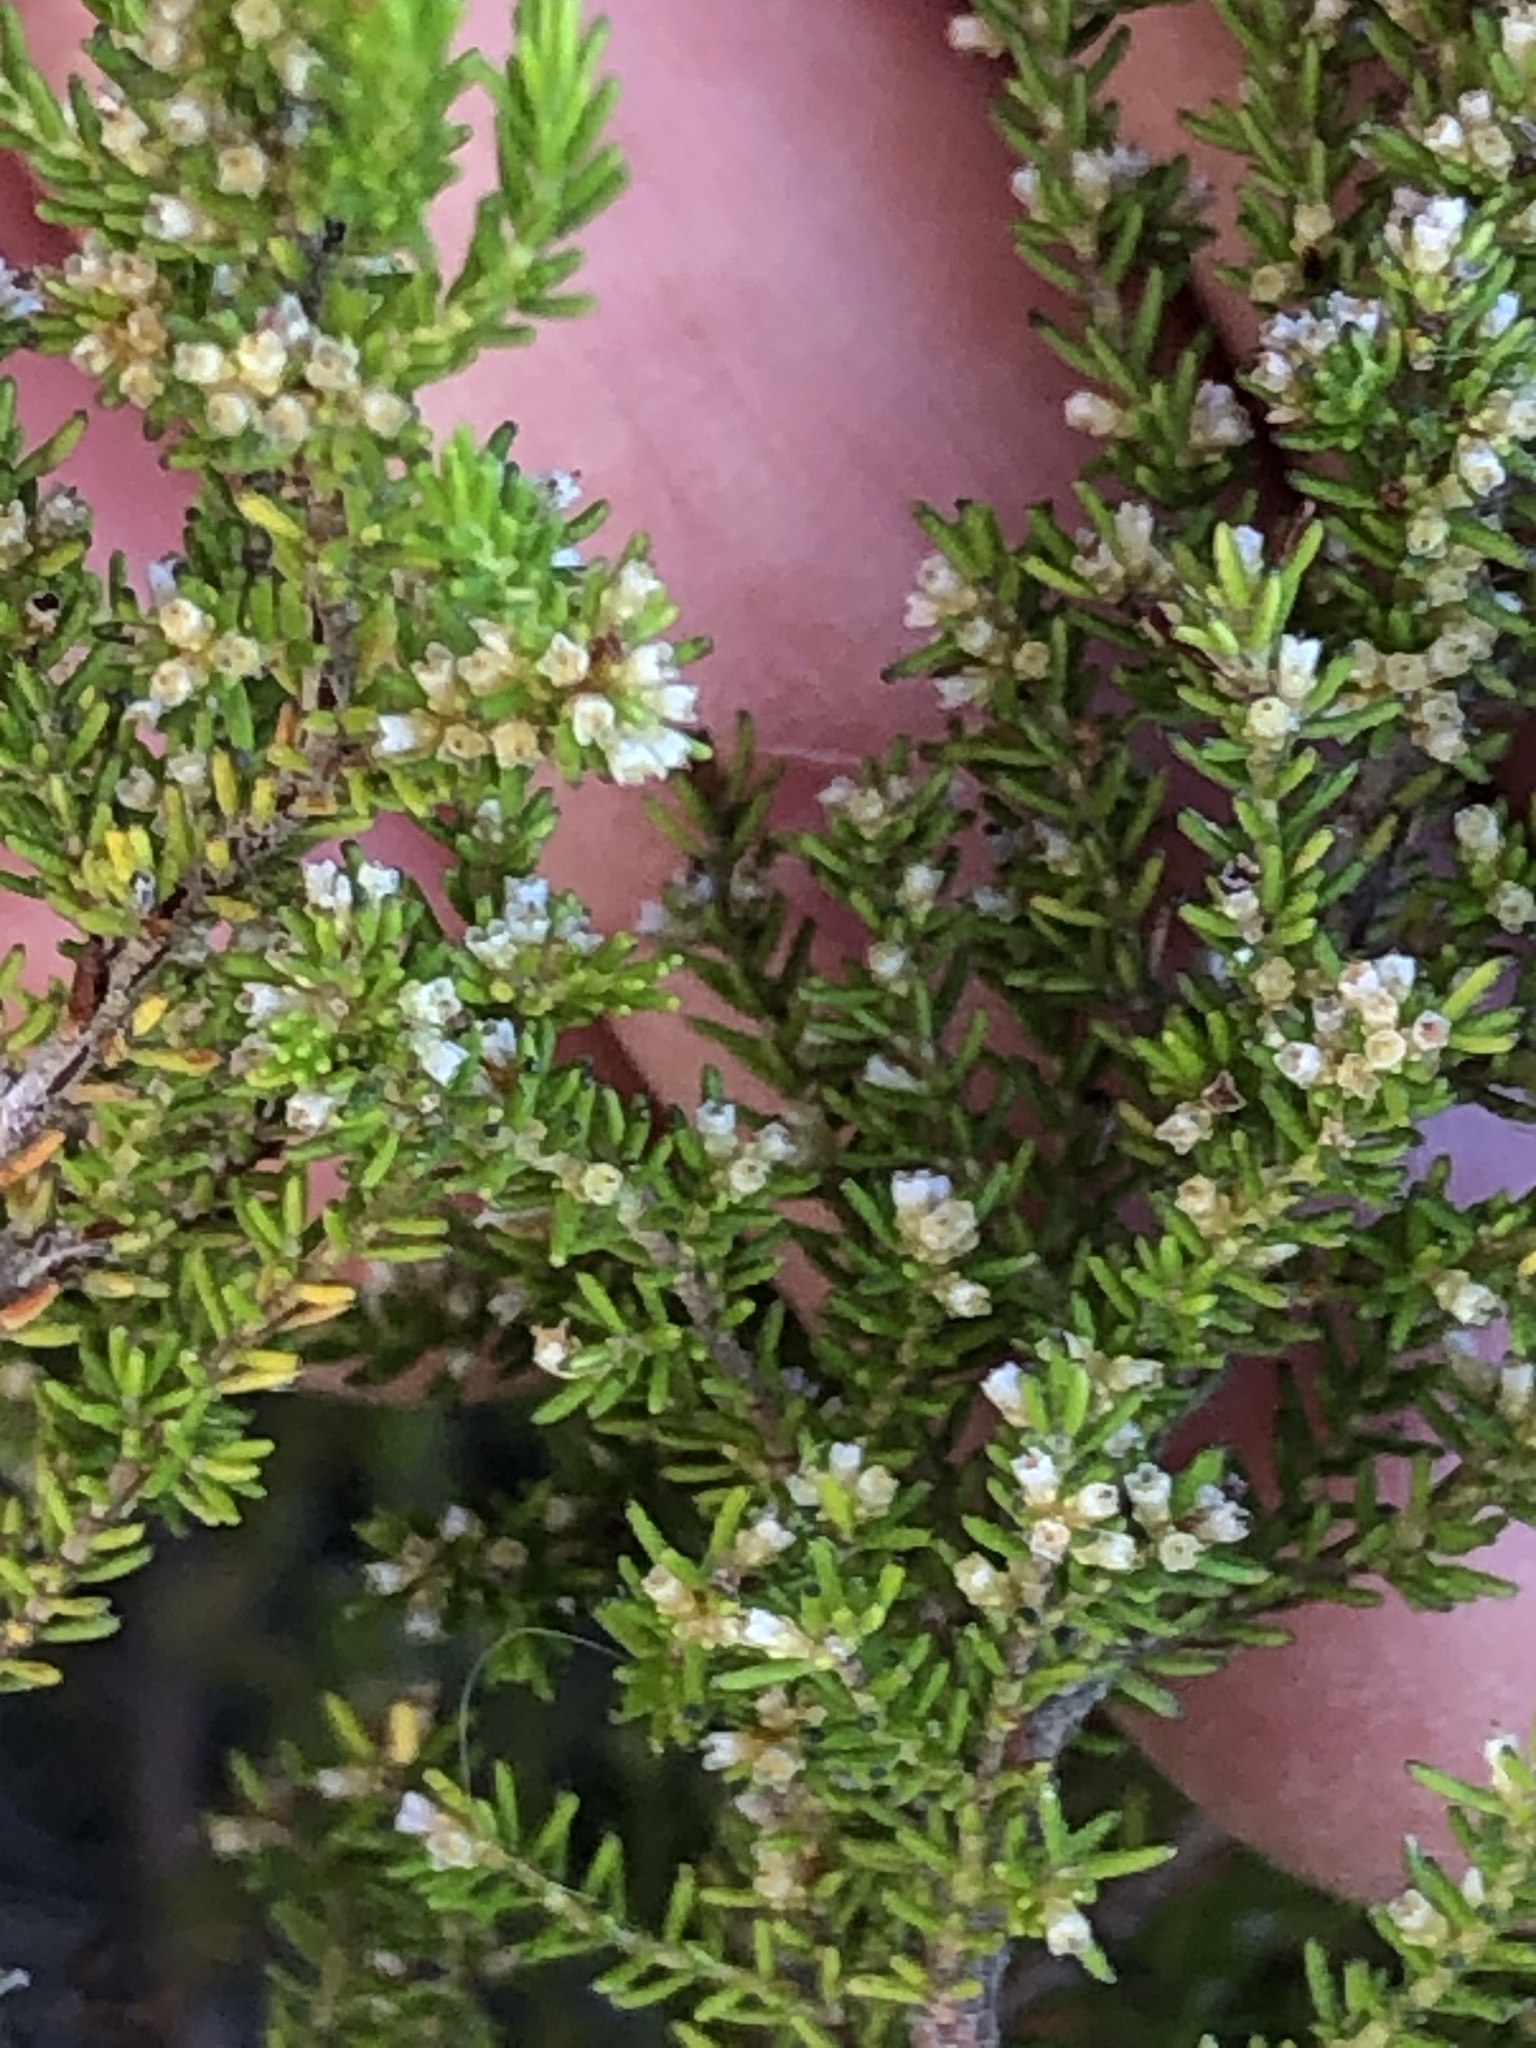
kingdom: Plantae
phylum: Tracheophyta
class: Magnoliopsida
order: Ericales
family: Ericaceae
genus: Erica
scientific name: Erica muscosa
